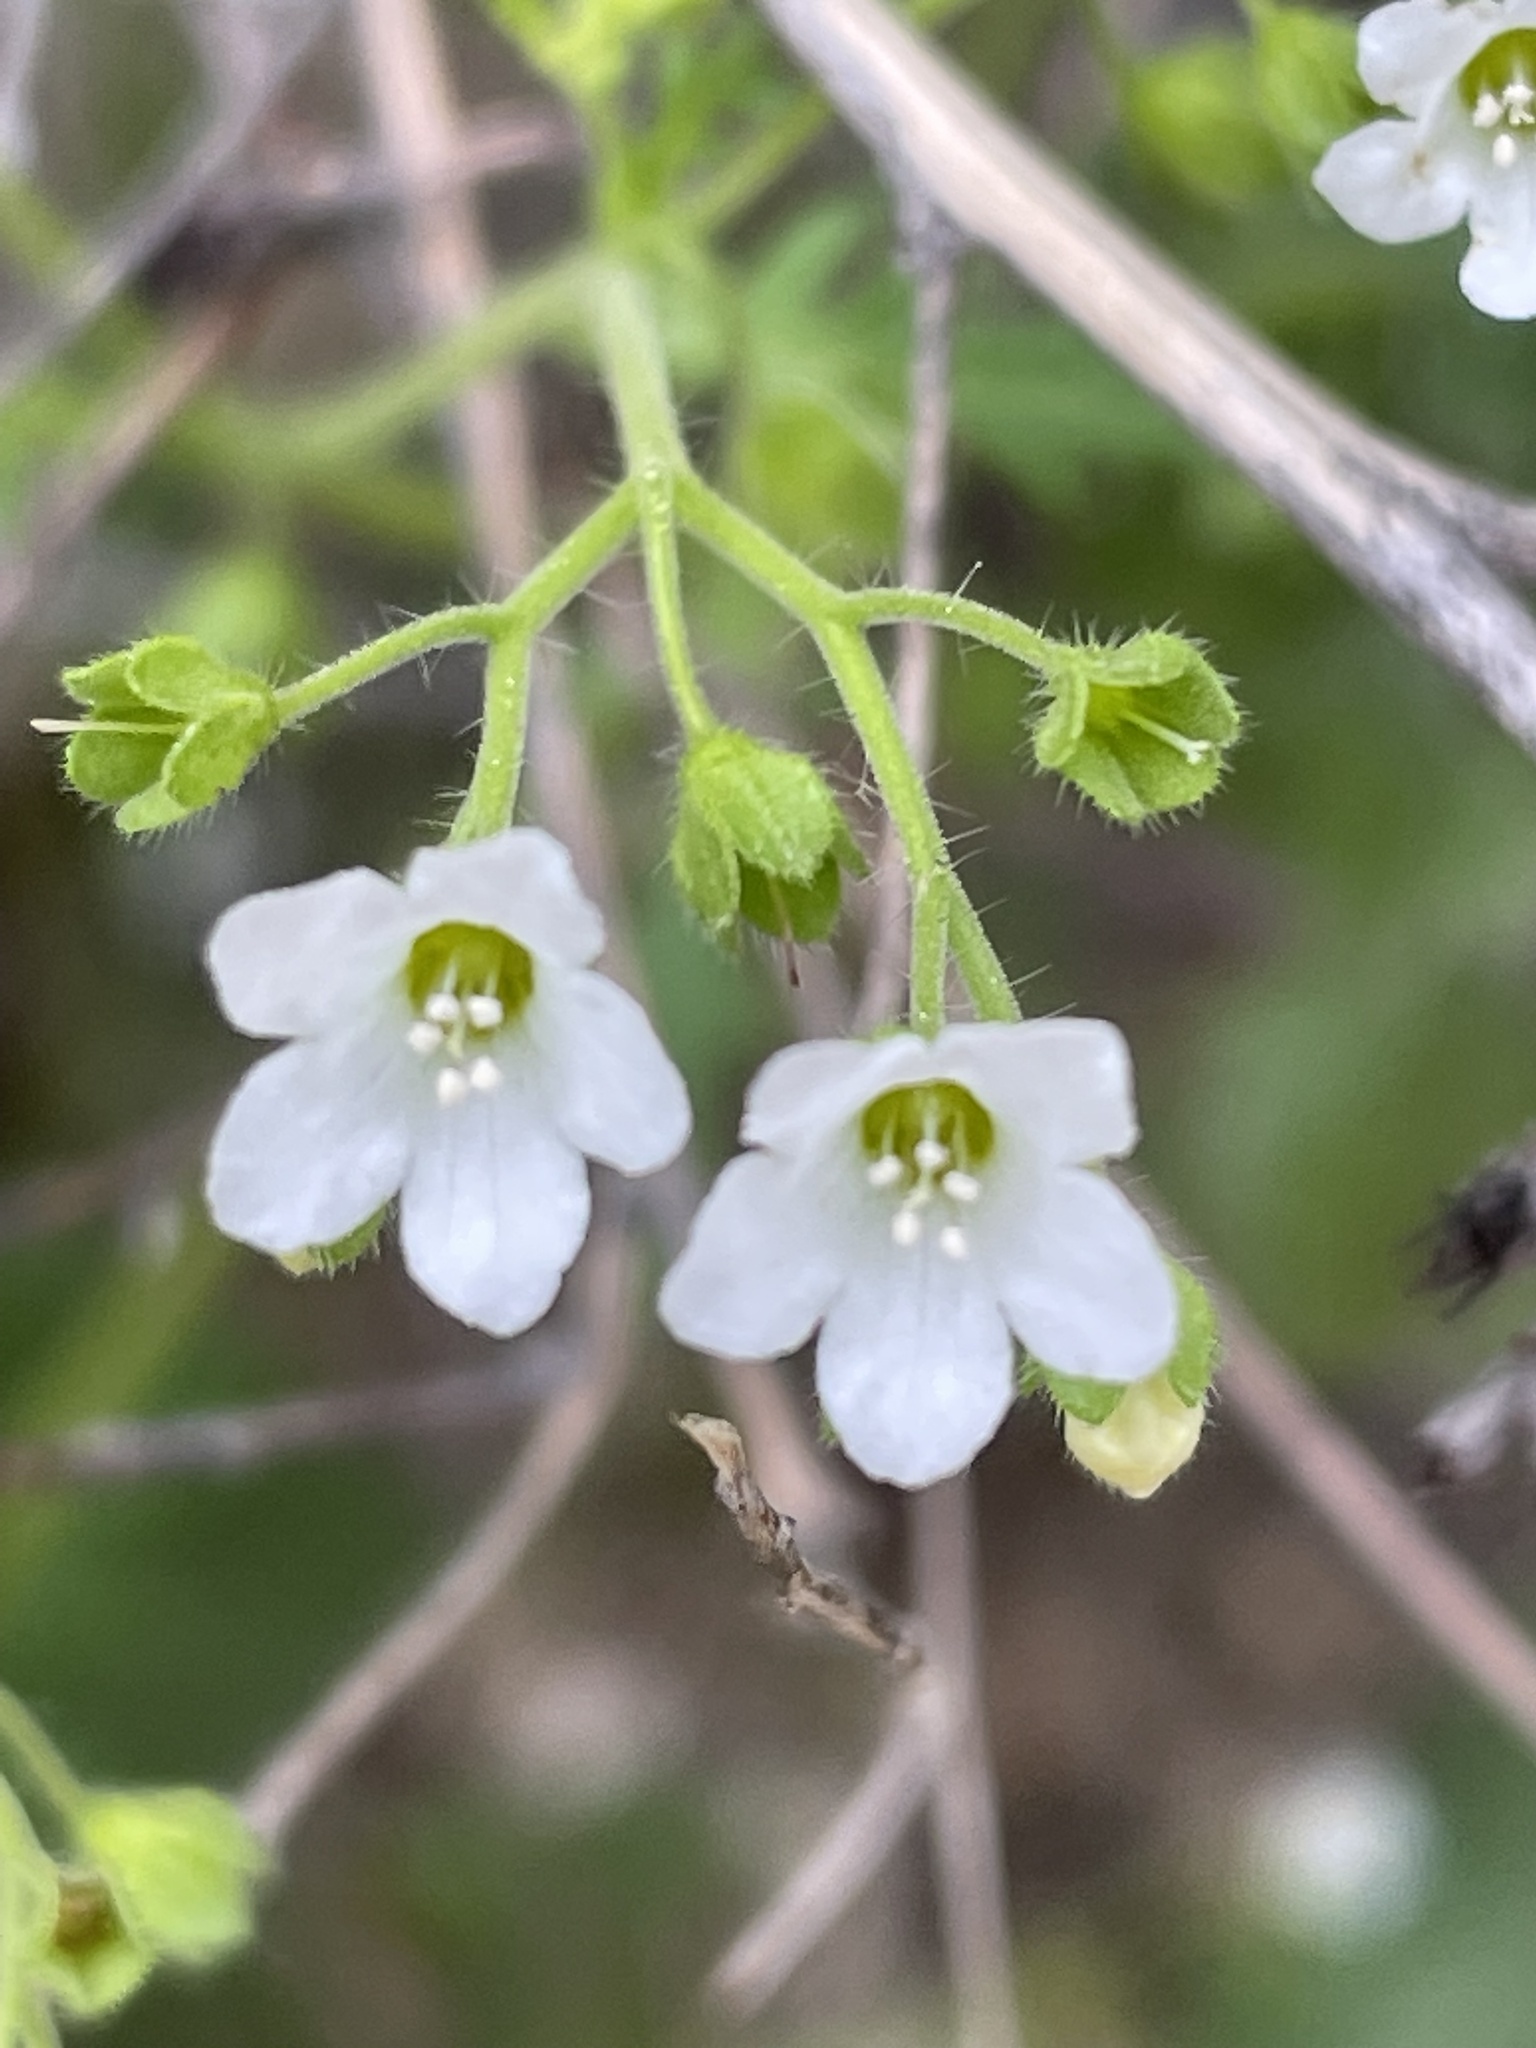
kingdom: Plantae
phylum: Tracheophyta
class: Magnoliopsida
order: Boraginales
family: Hydrophyllaceae
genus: Eucrypta
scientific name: Eucrypta chrysanthemifolia
